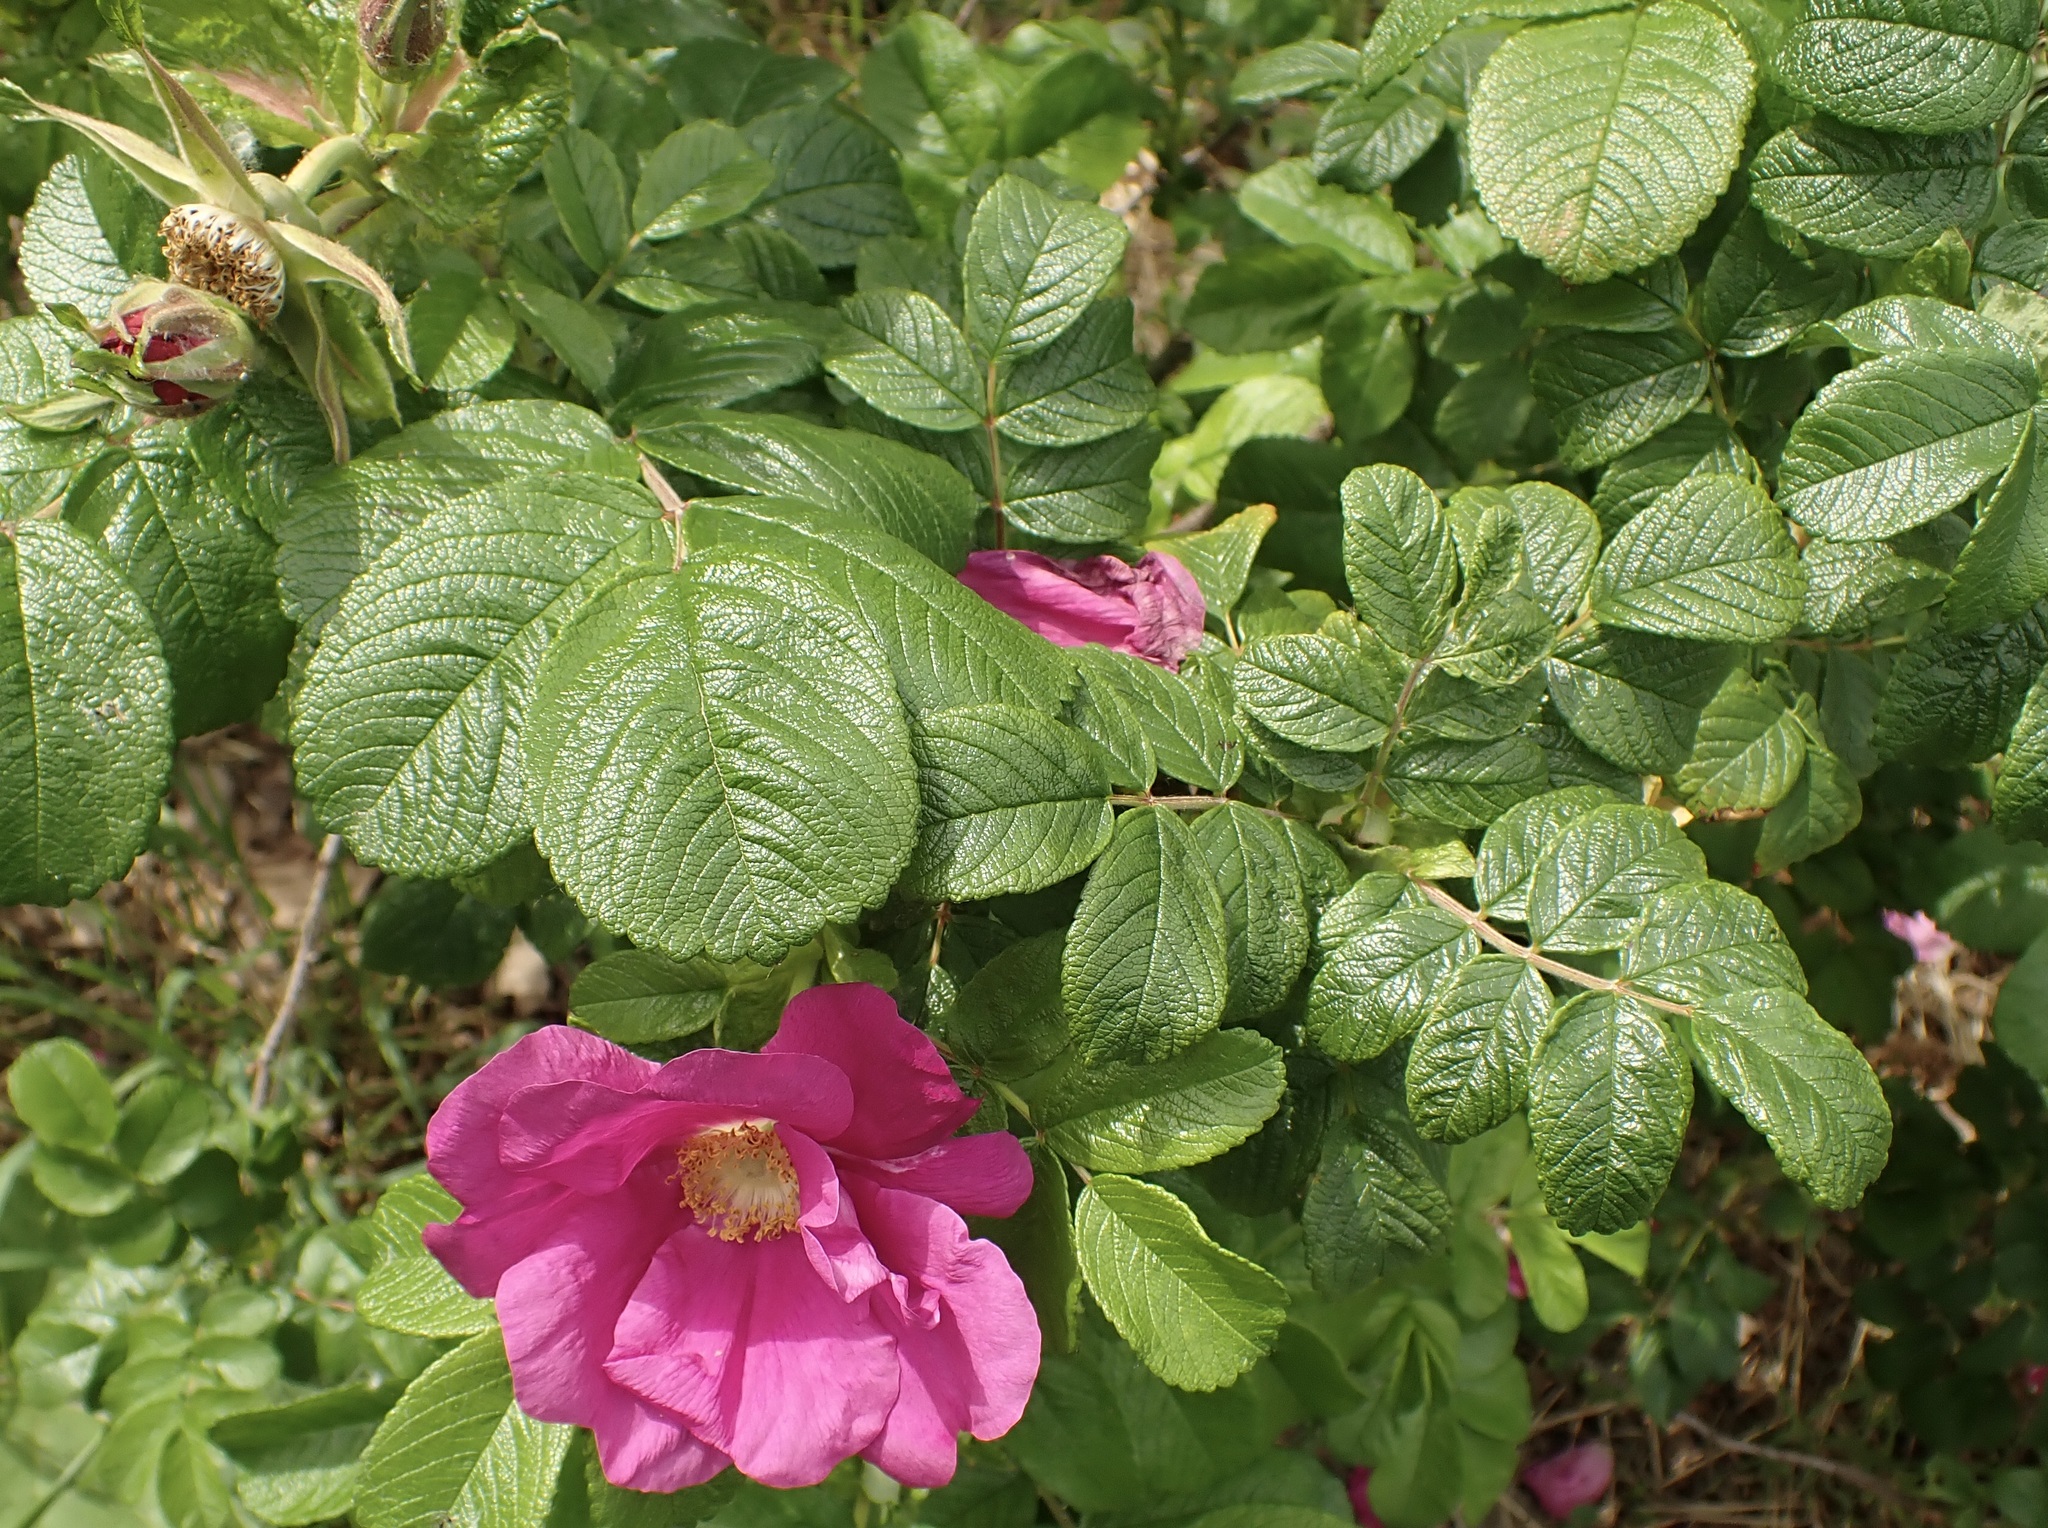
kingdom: Plantae
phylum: Tracheophyta
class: Magnoliopsida
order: Rosales
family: Rosaceae
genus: Rosa
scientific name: Rosa rugosa
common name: Japanese rose
